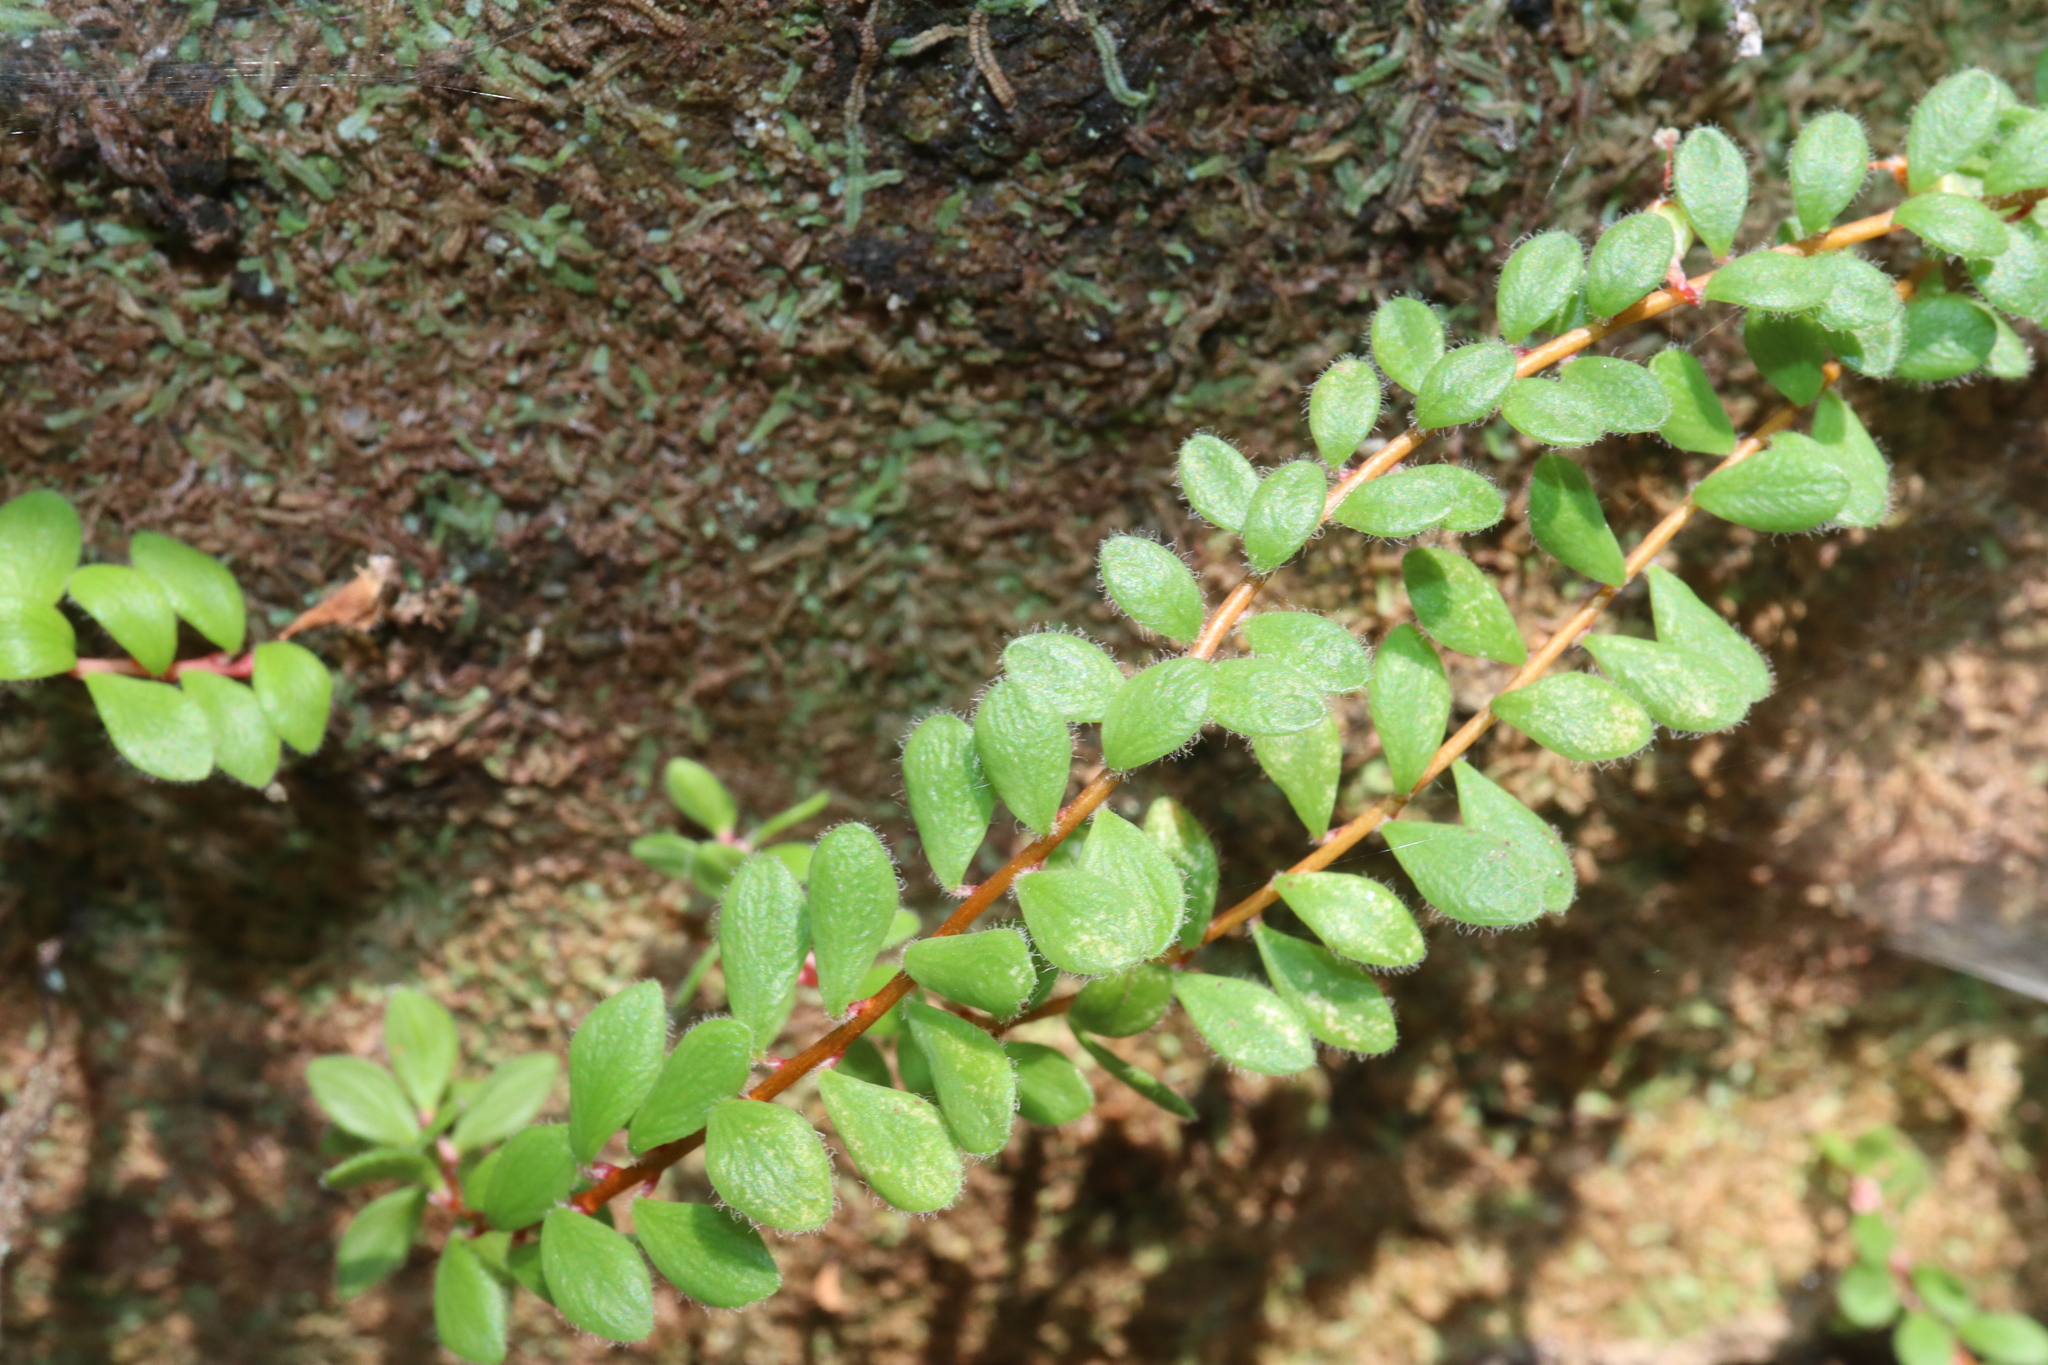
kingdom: Plantae
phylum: Tracheophyta
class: Magnoliopsida
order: Ericales
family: Ericaceae
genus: Epacris
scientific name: Epacris crassifolia
